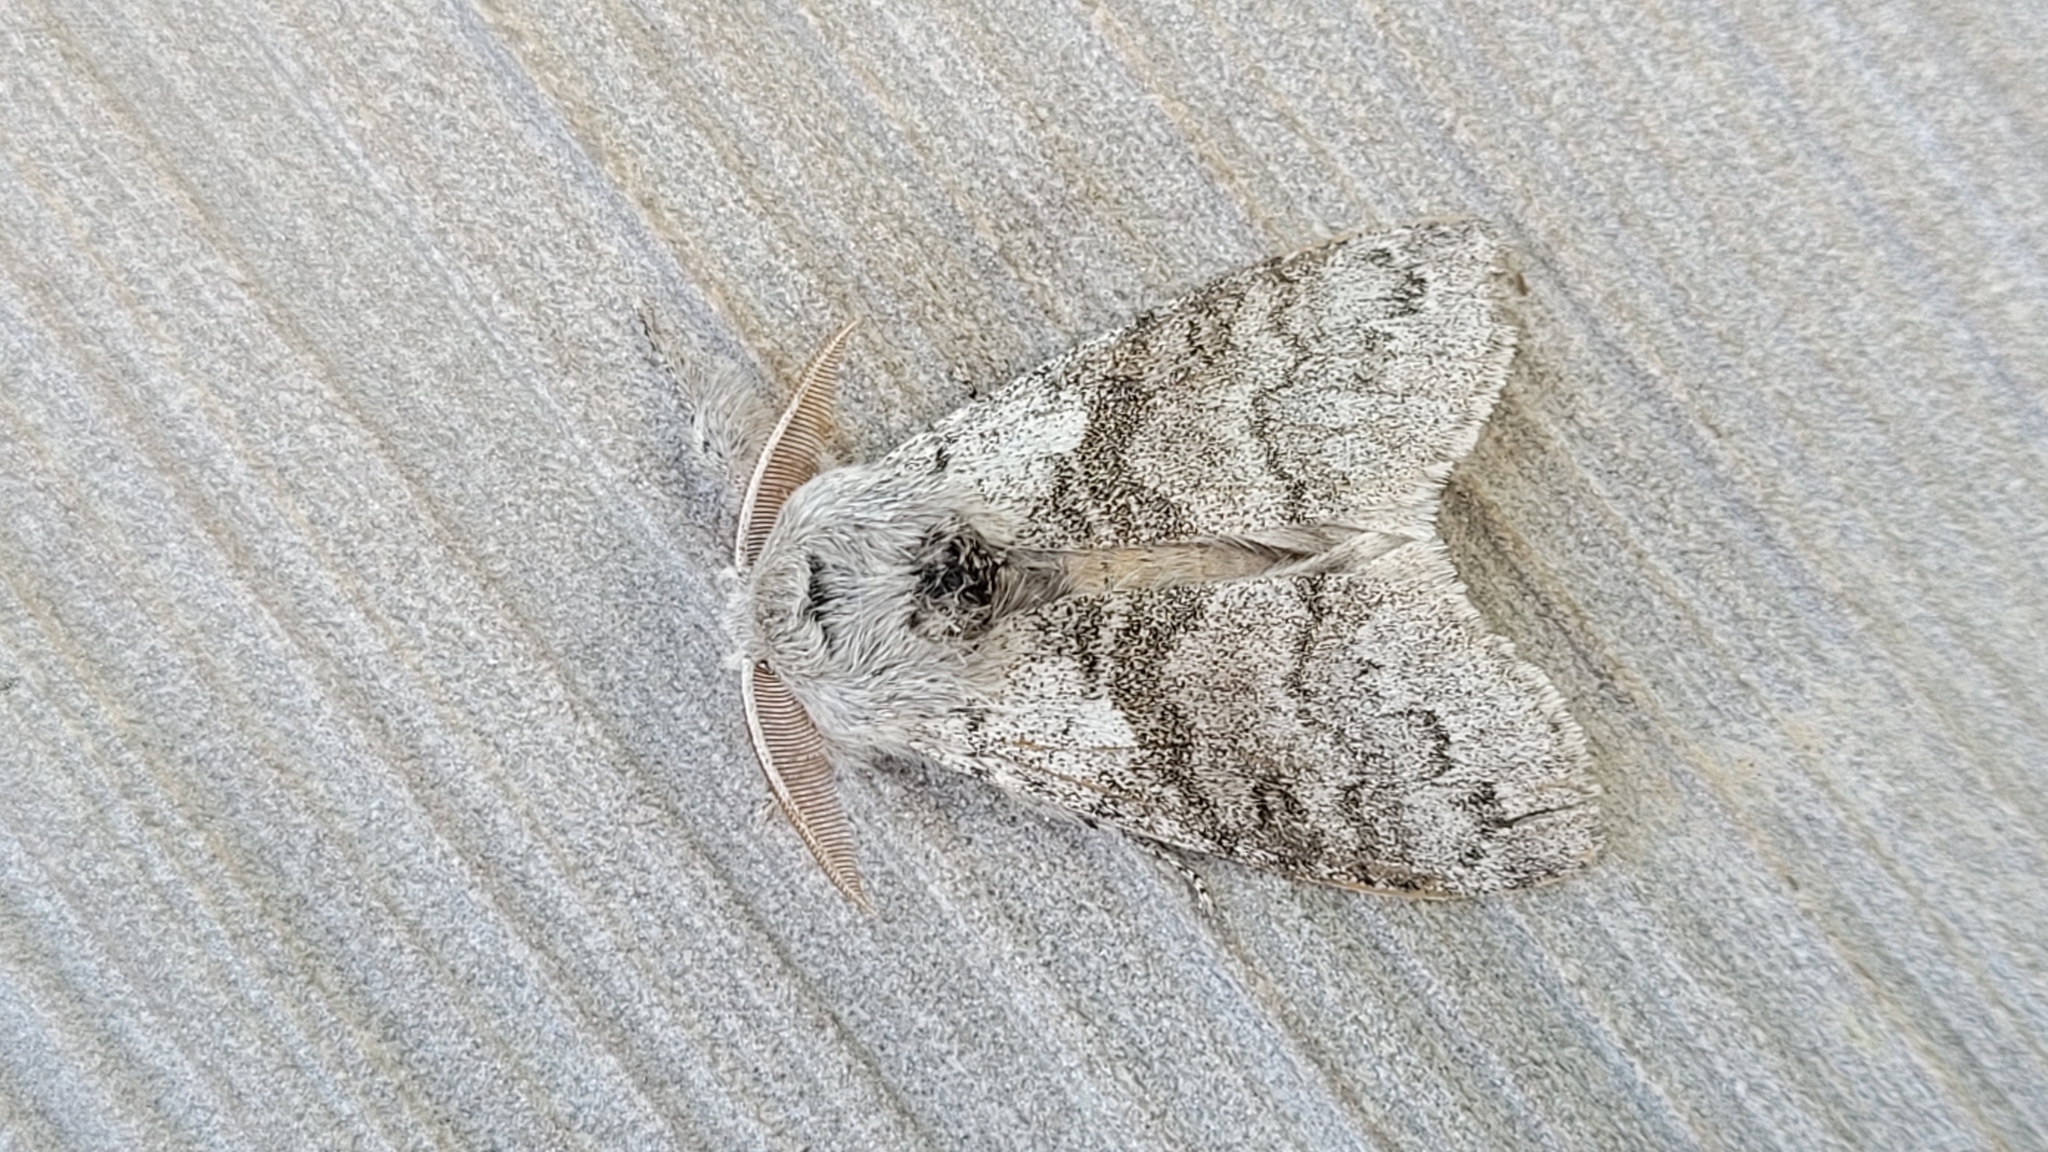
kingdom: Animalia
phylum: Arthropoda
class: Insecta
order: Lepidoptera
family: Erebidae
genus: Calliteara
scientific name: Calliteara pudibunda
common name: Pale tussock
